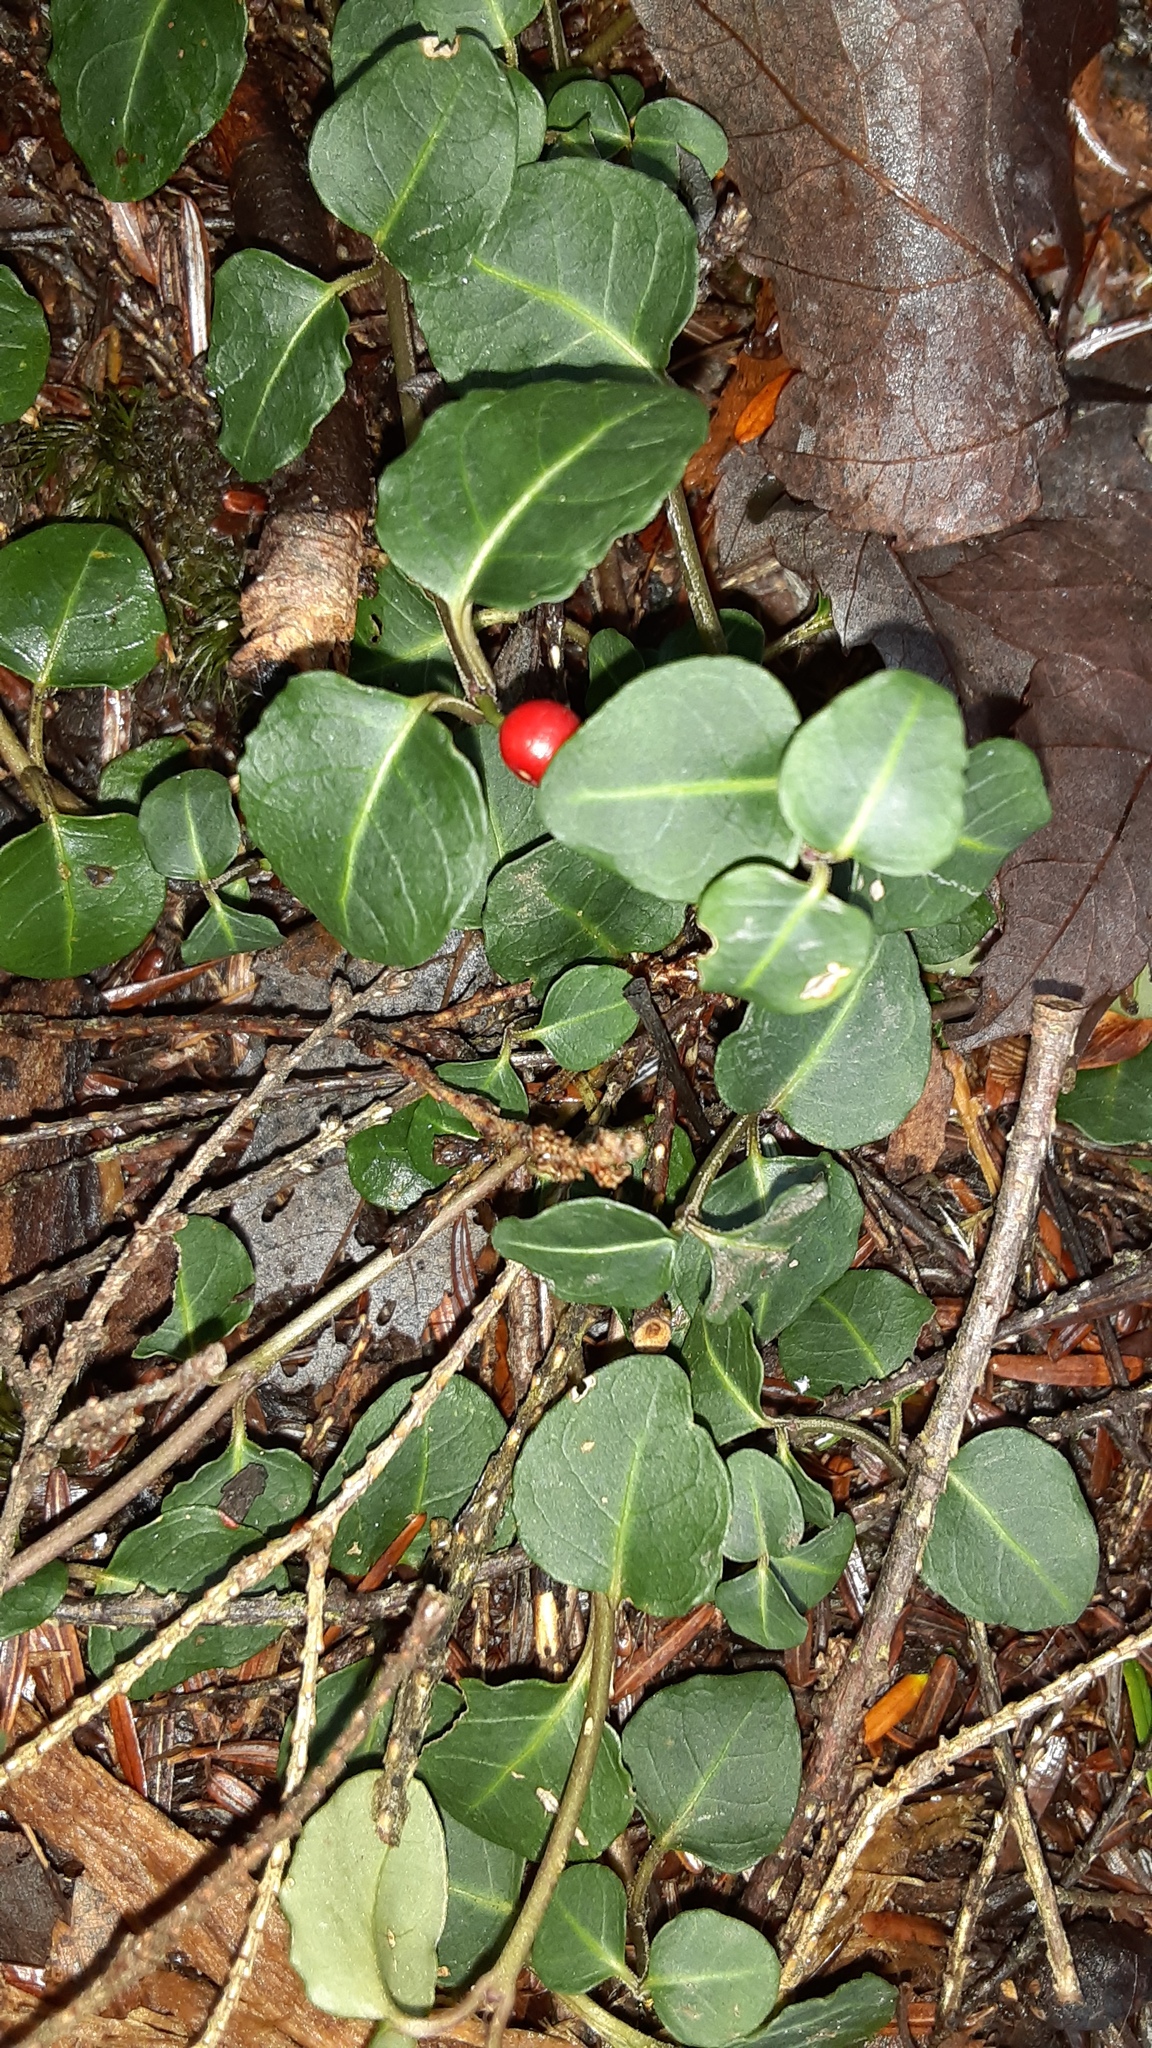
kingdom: Plantae
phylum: Tracheophyta
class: Magnoliopsida
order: Gentianales
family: Rubiaceae
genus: Mitchella
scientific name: Mitchella repens
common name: Partridge-berry
